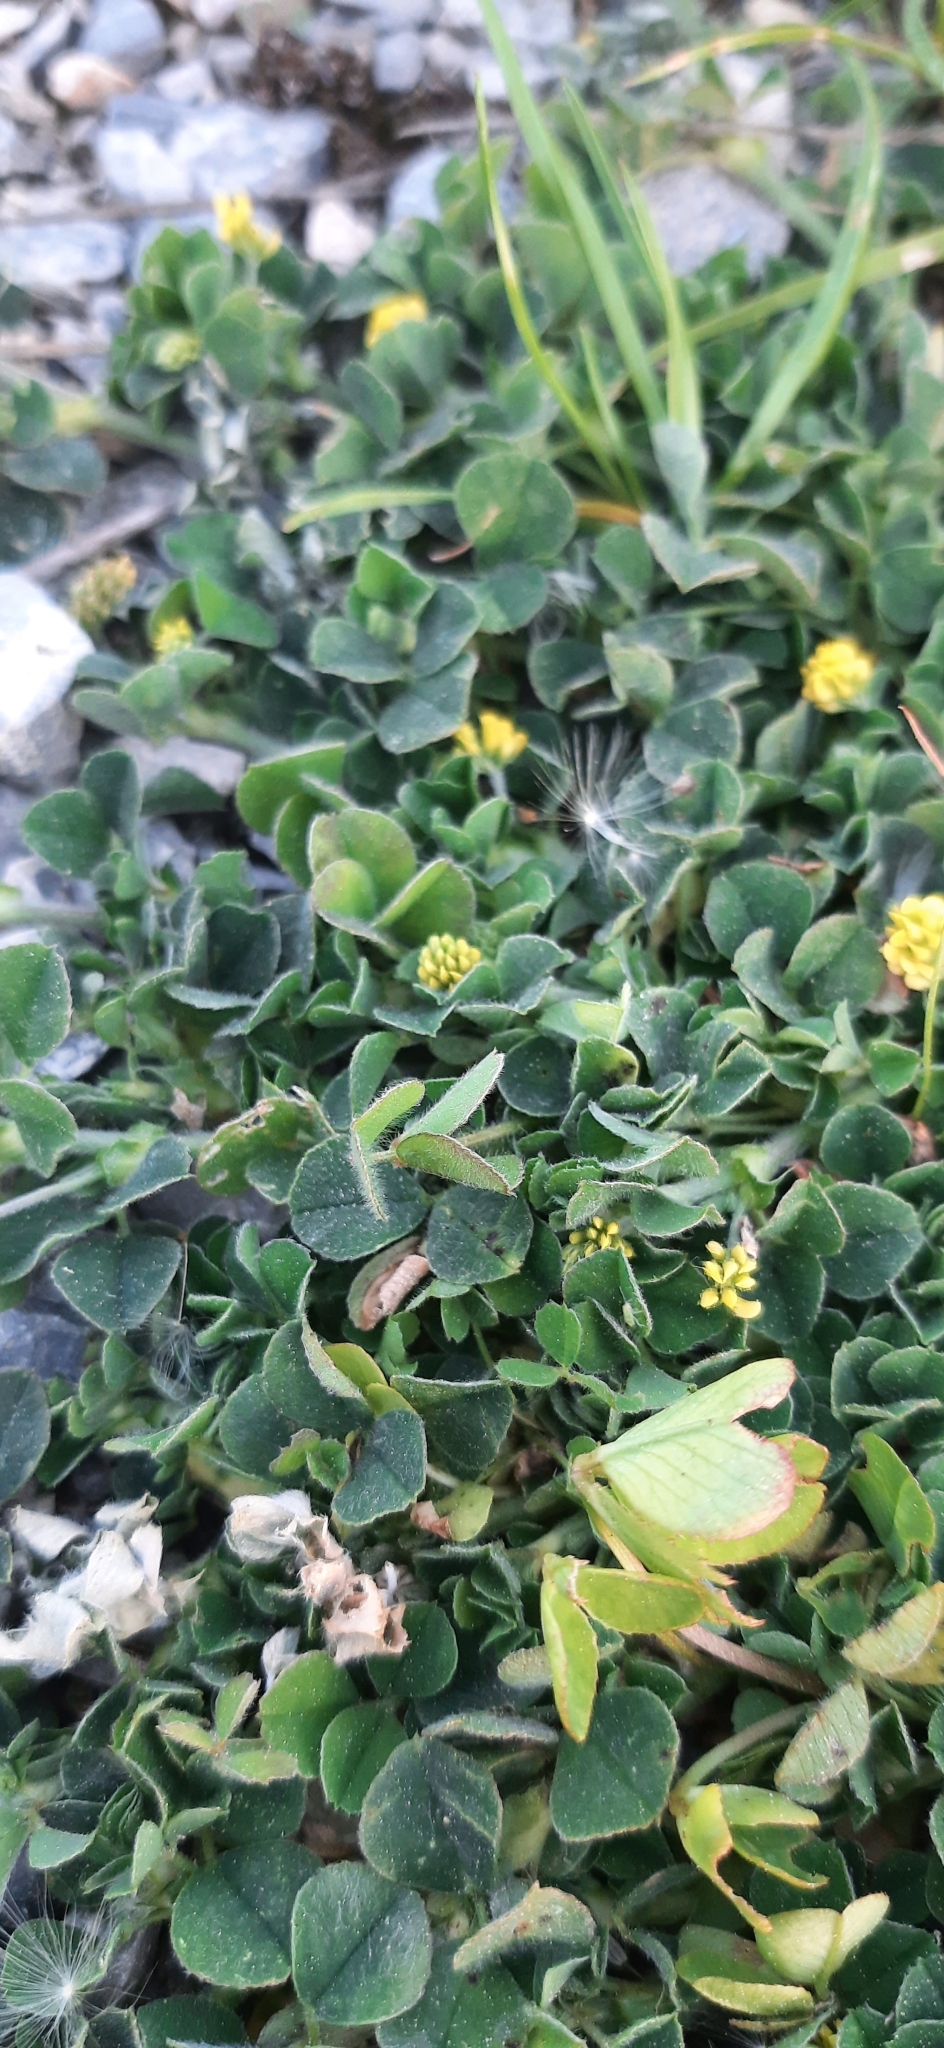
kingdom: Plantae
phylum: Tracheophyta
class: Magnoliopsida
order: Fabales
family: Fabaceae
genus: Medicago
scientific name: Medicago lupulina
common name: Black medick
